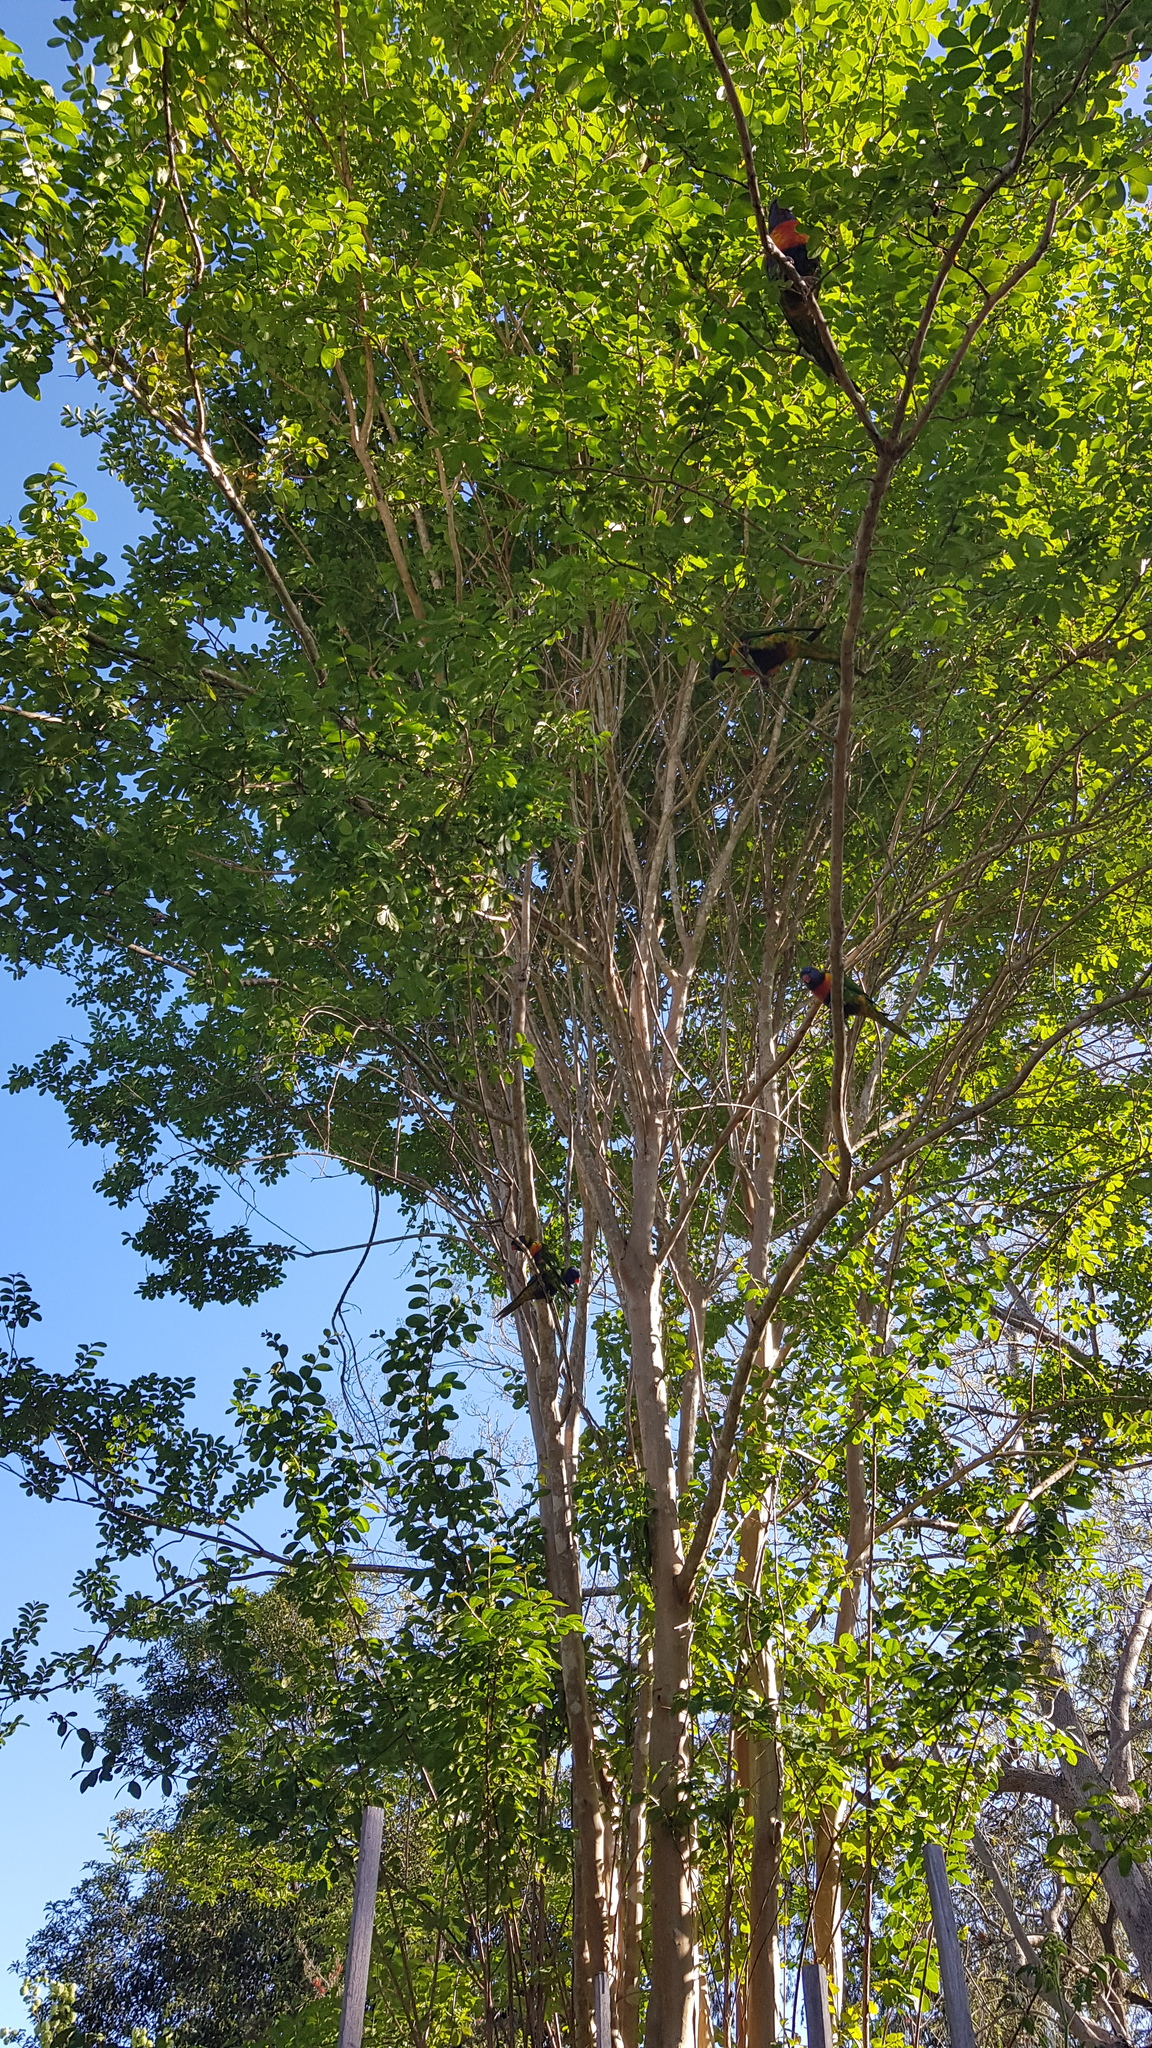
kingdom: Animalia
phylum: Chordata
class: Aves
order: Psittaciformes
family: Psittacidae
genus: Trichoglossus
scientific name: Trichoglossus haematodus
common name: Coconut lorikeet
